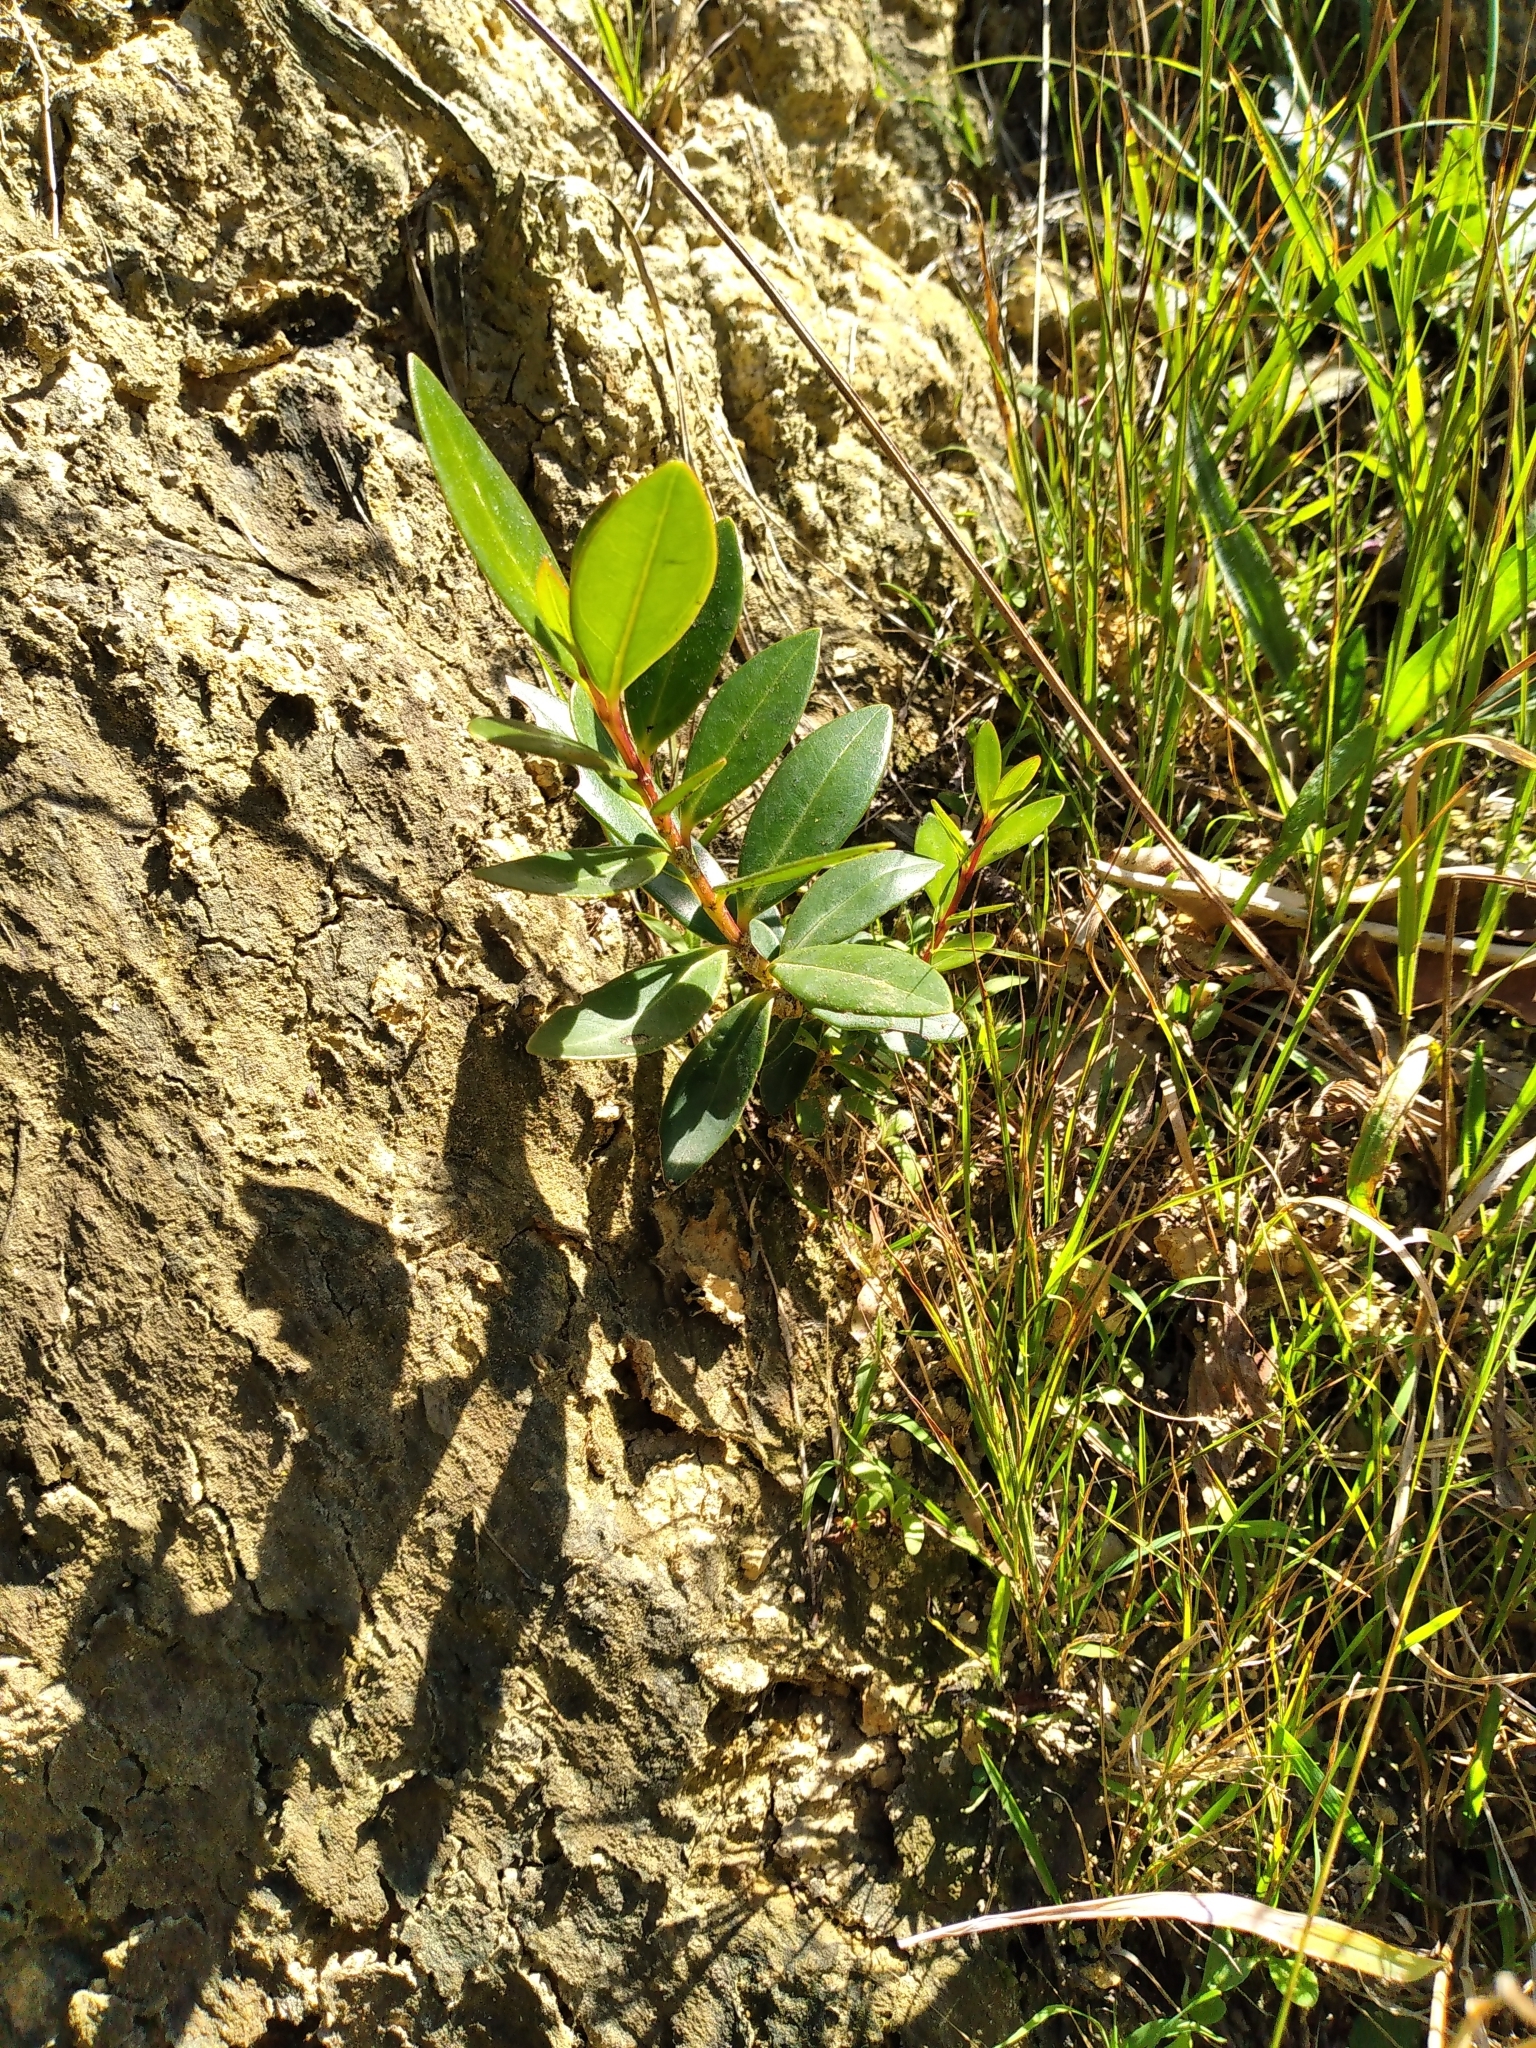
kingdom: Plantae
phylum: Tracheophyta
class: Magnoliopsida
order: Myrtales
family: Myrtaceae
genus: Metrosideros
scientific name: Metrosideros excelsa
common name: New zealand christmastree
